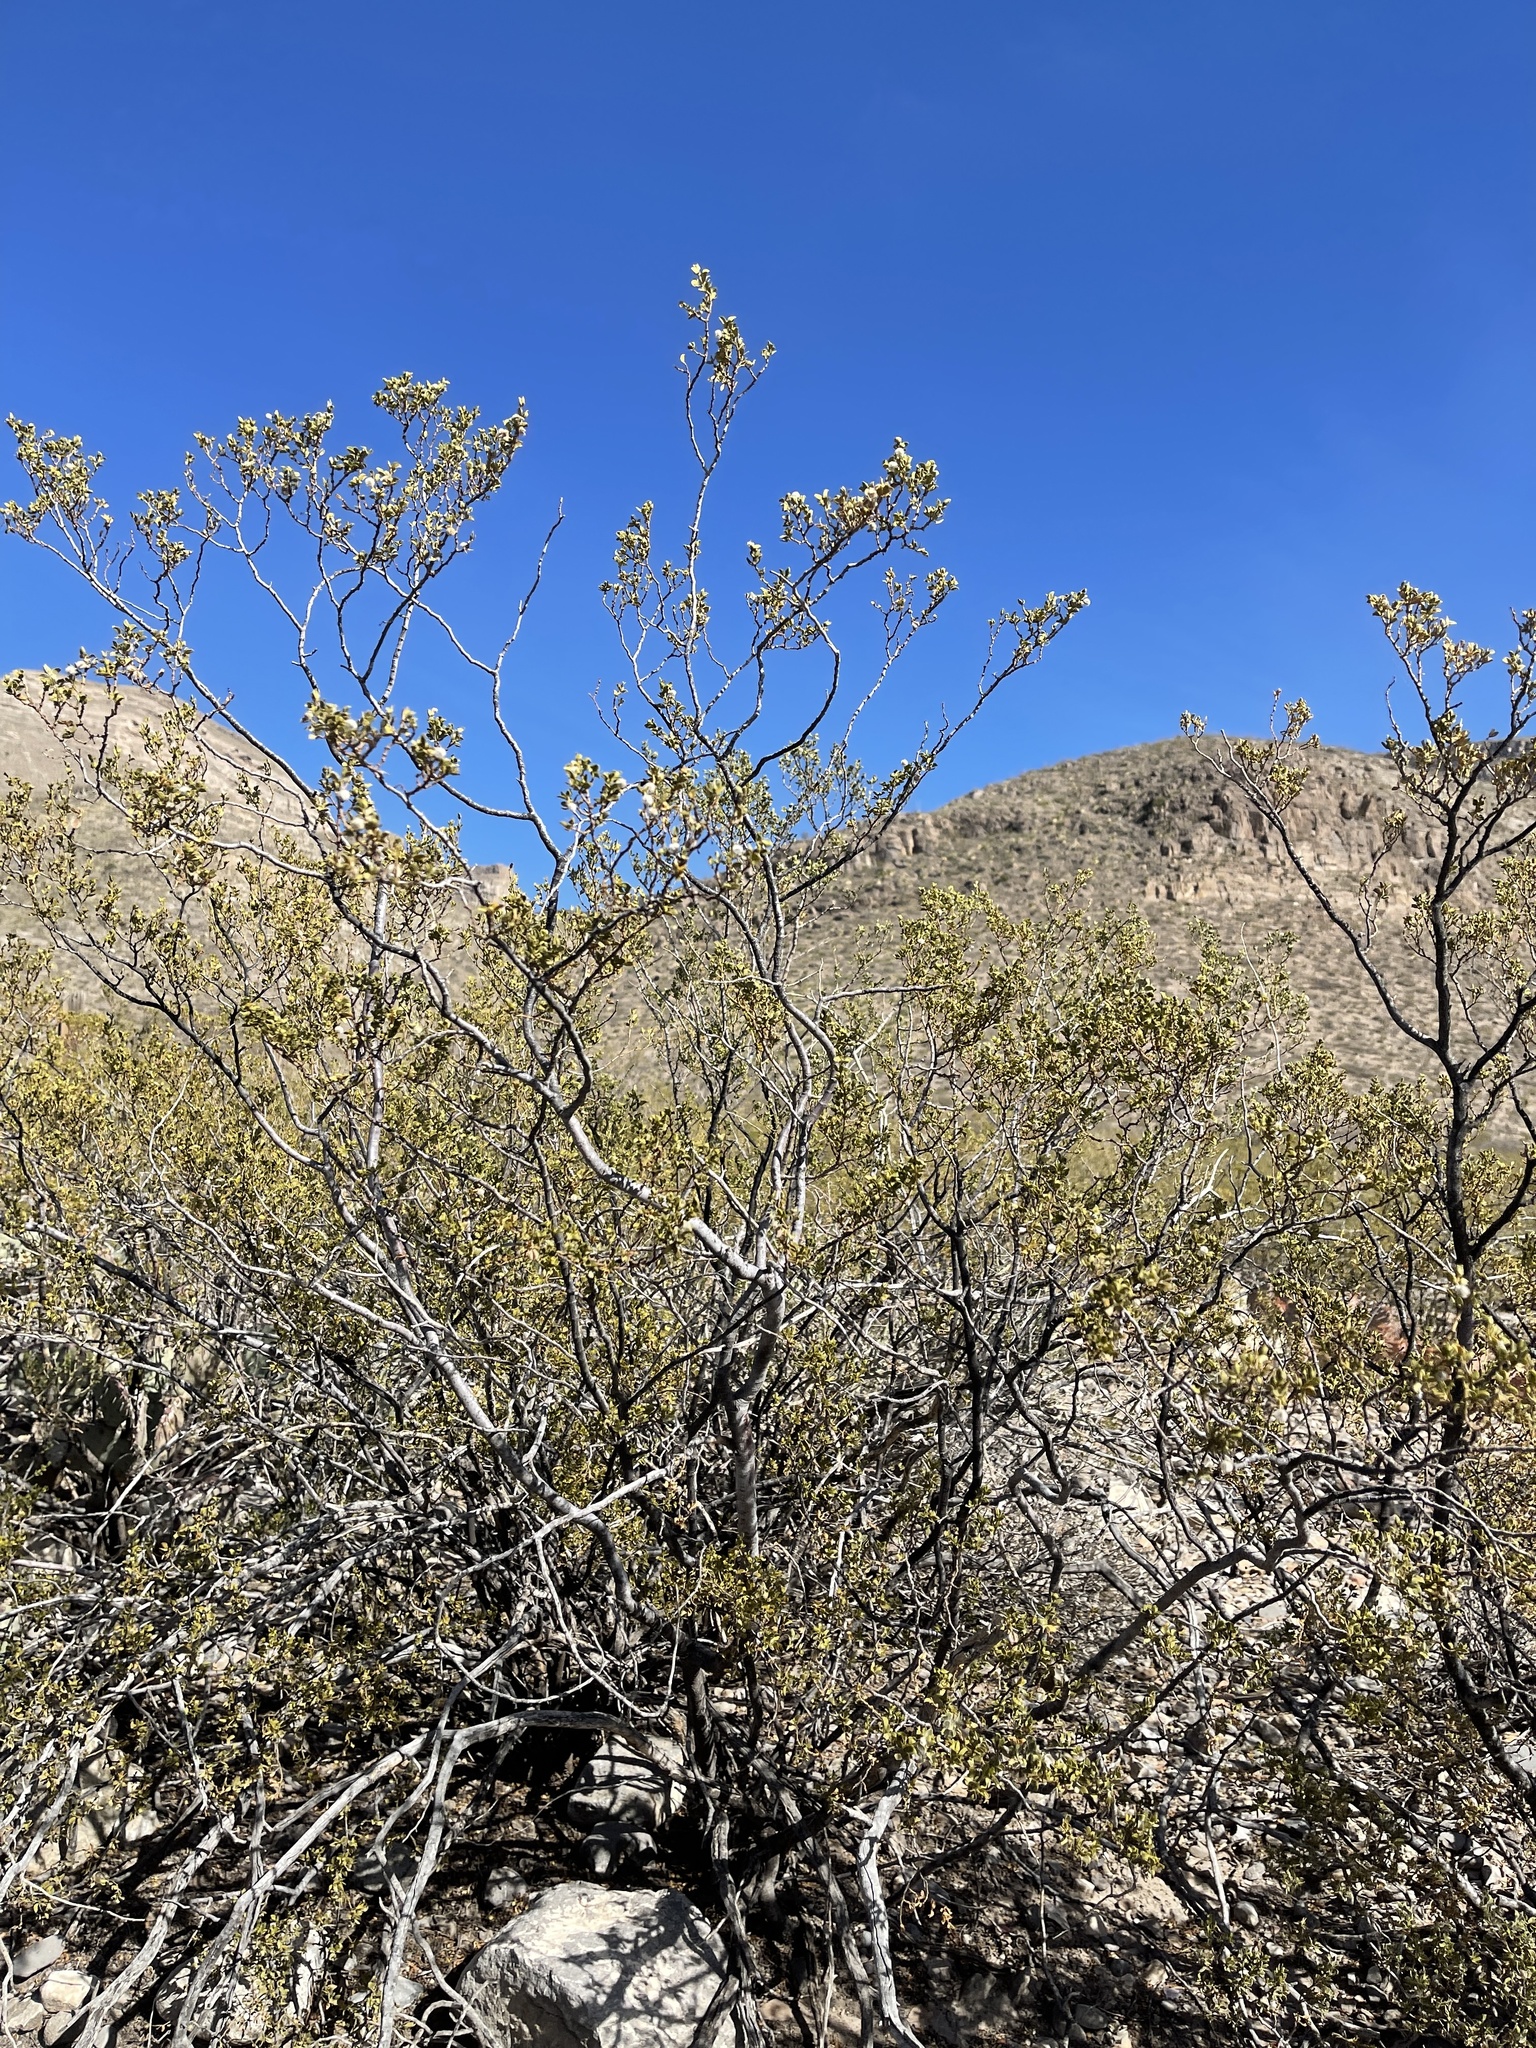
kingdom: Plantae
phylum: Tracheophyta
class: Magnoliopsida
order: Zygophyllales
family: Zygophyllaceae
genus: Larrea
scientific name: Larrea tridentata
